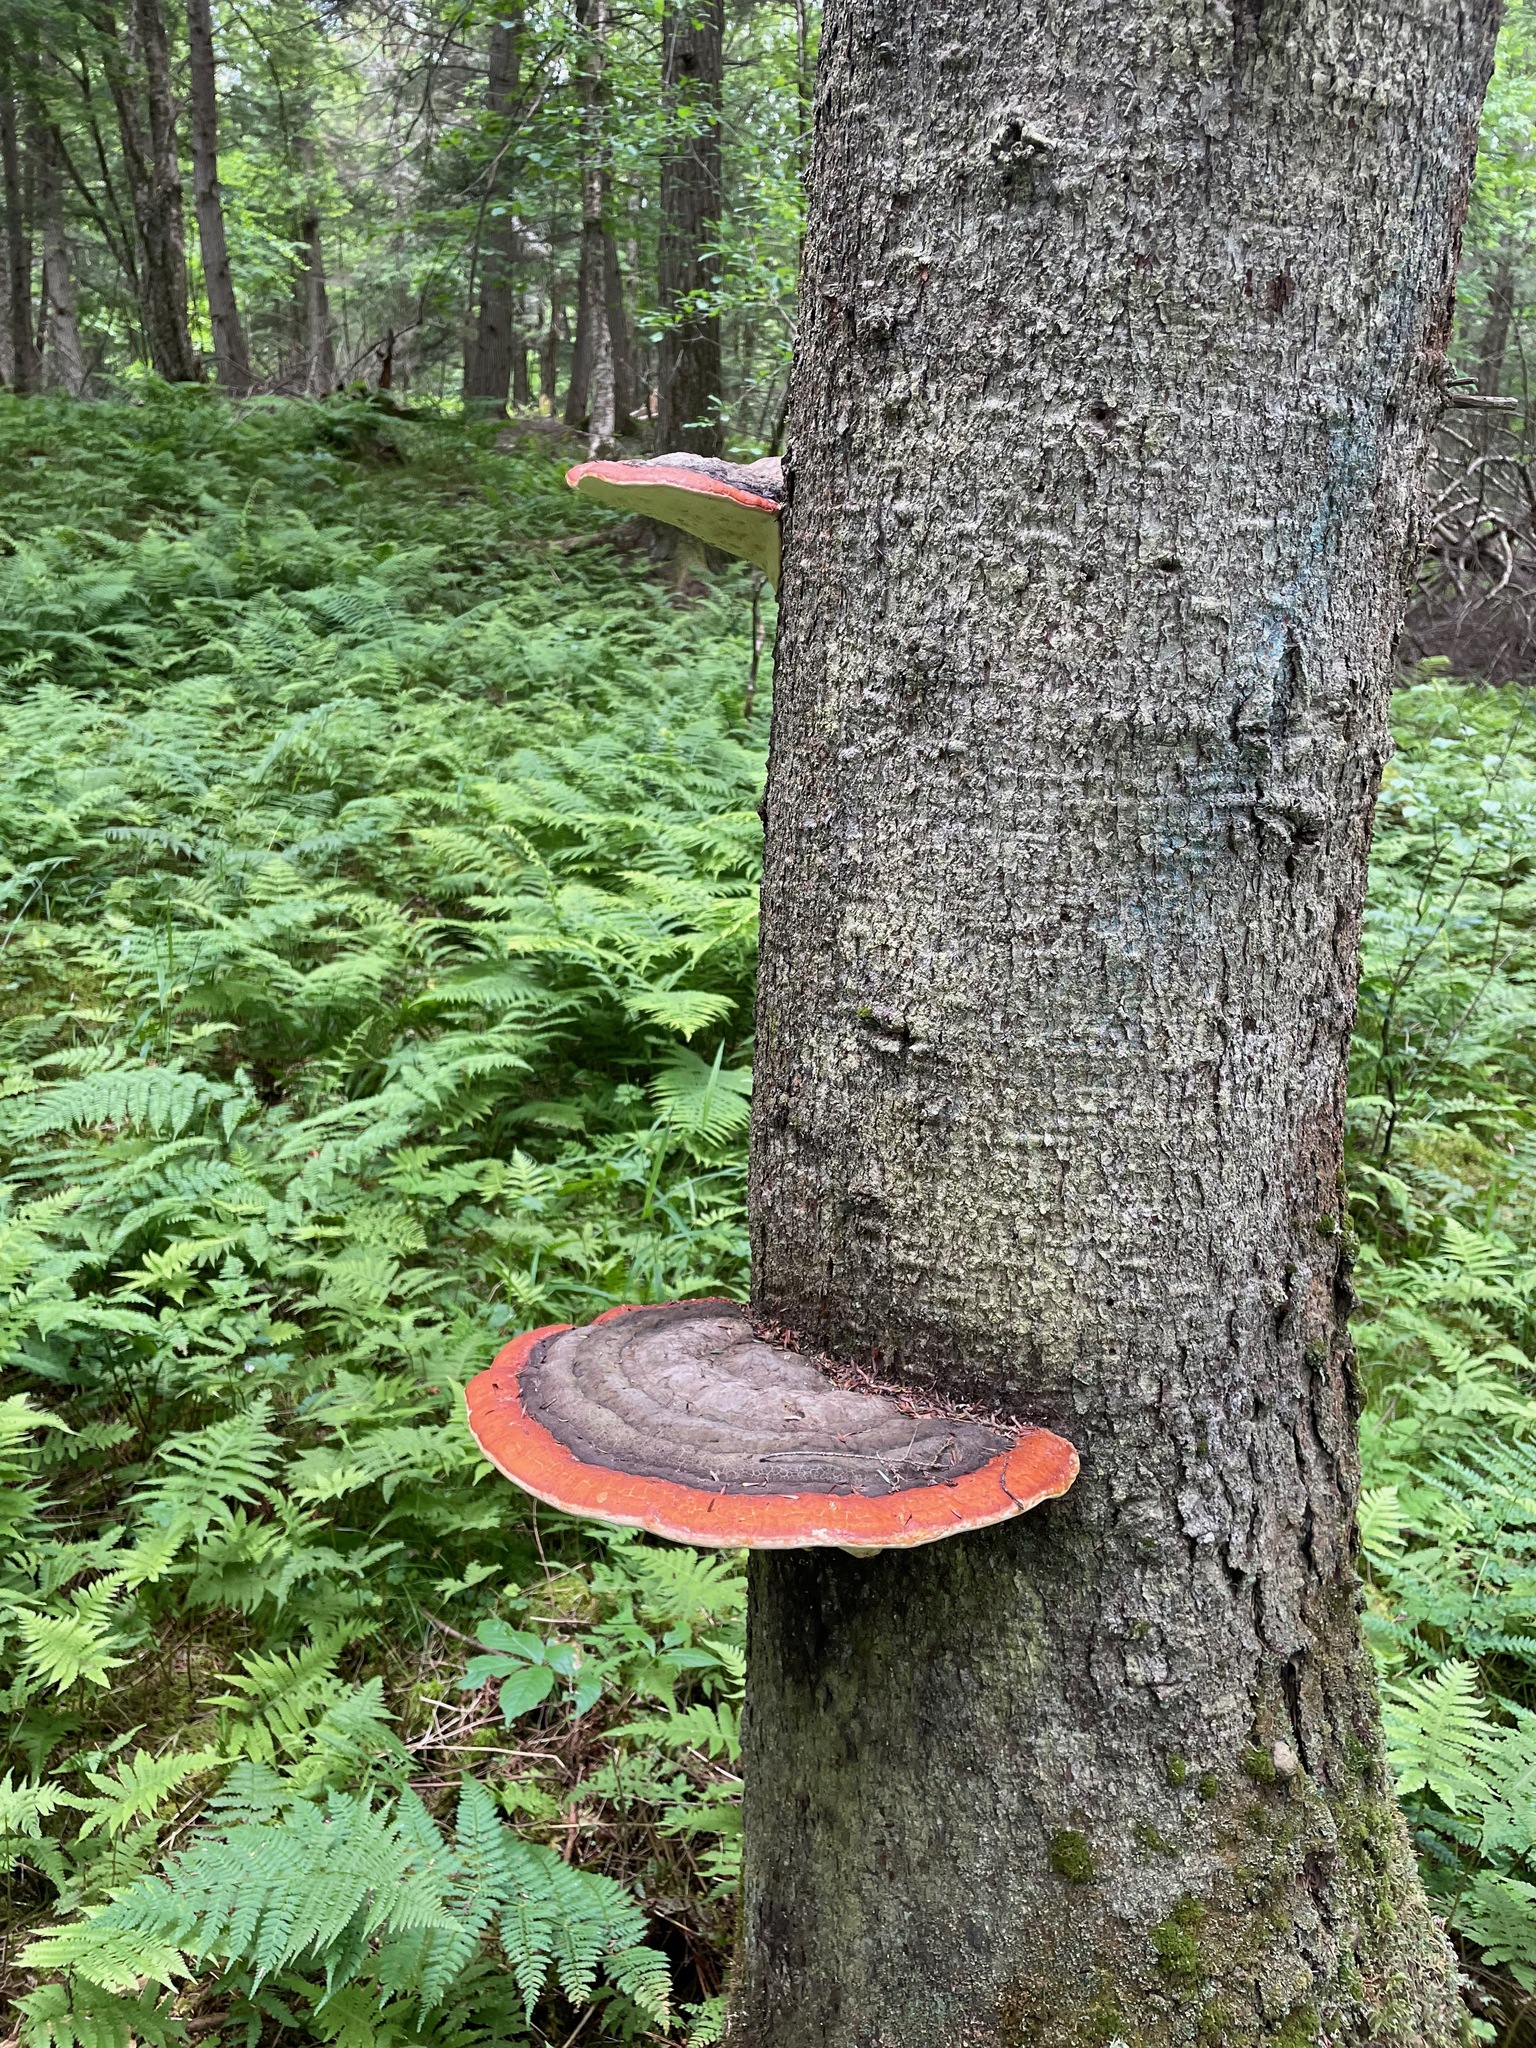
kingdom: Fungi
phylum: Basidiomycota
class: Agaricomycetes
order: Polyporales
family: Fomitopsidaceae
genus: Fomitopsis
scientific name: Fomitopsis mounceae
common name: Northern red belt
